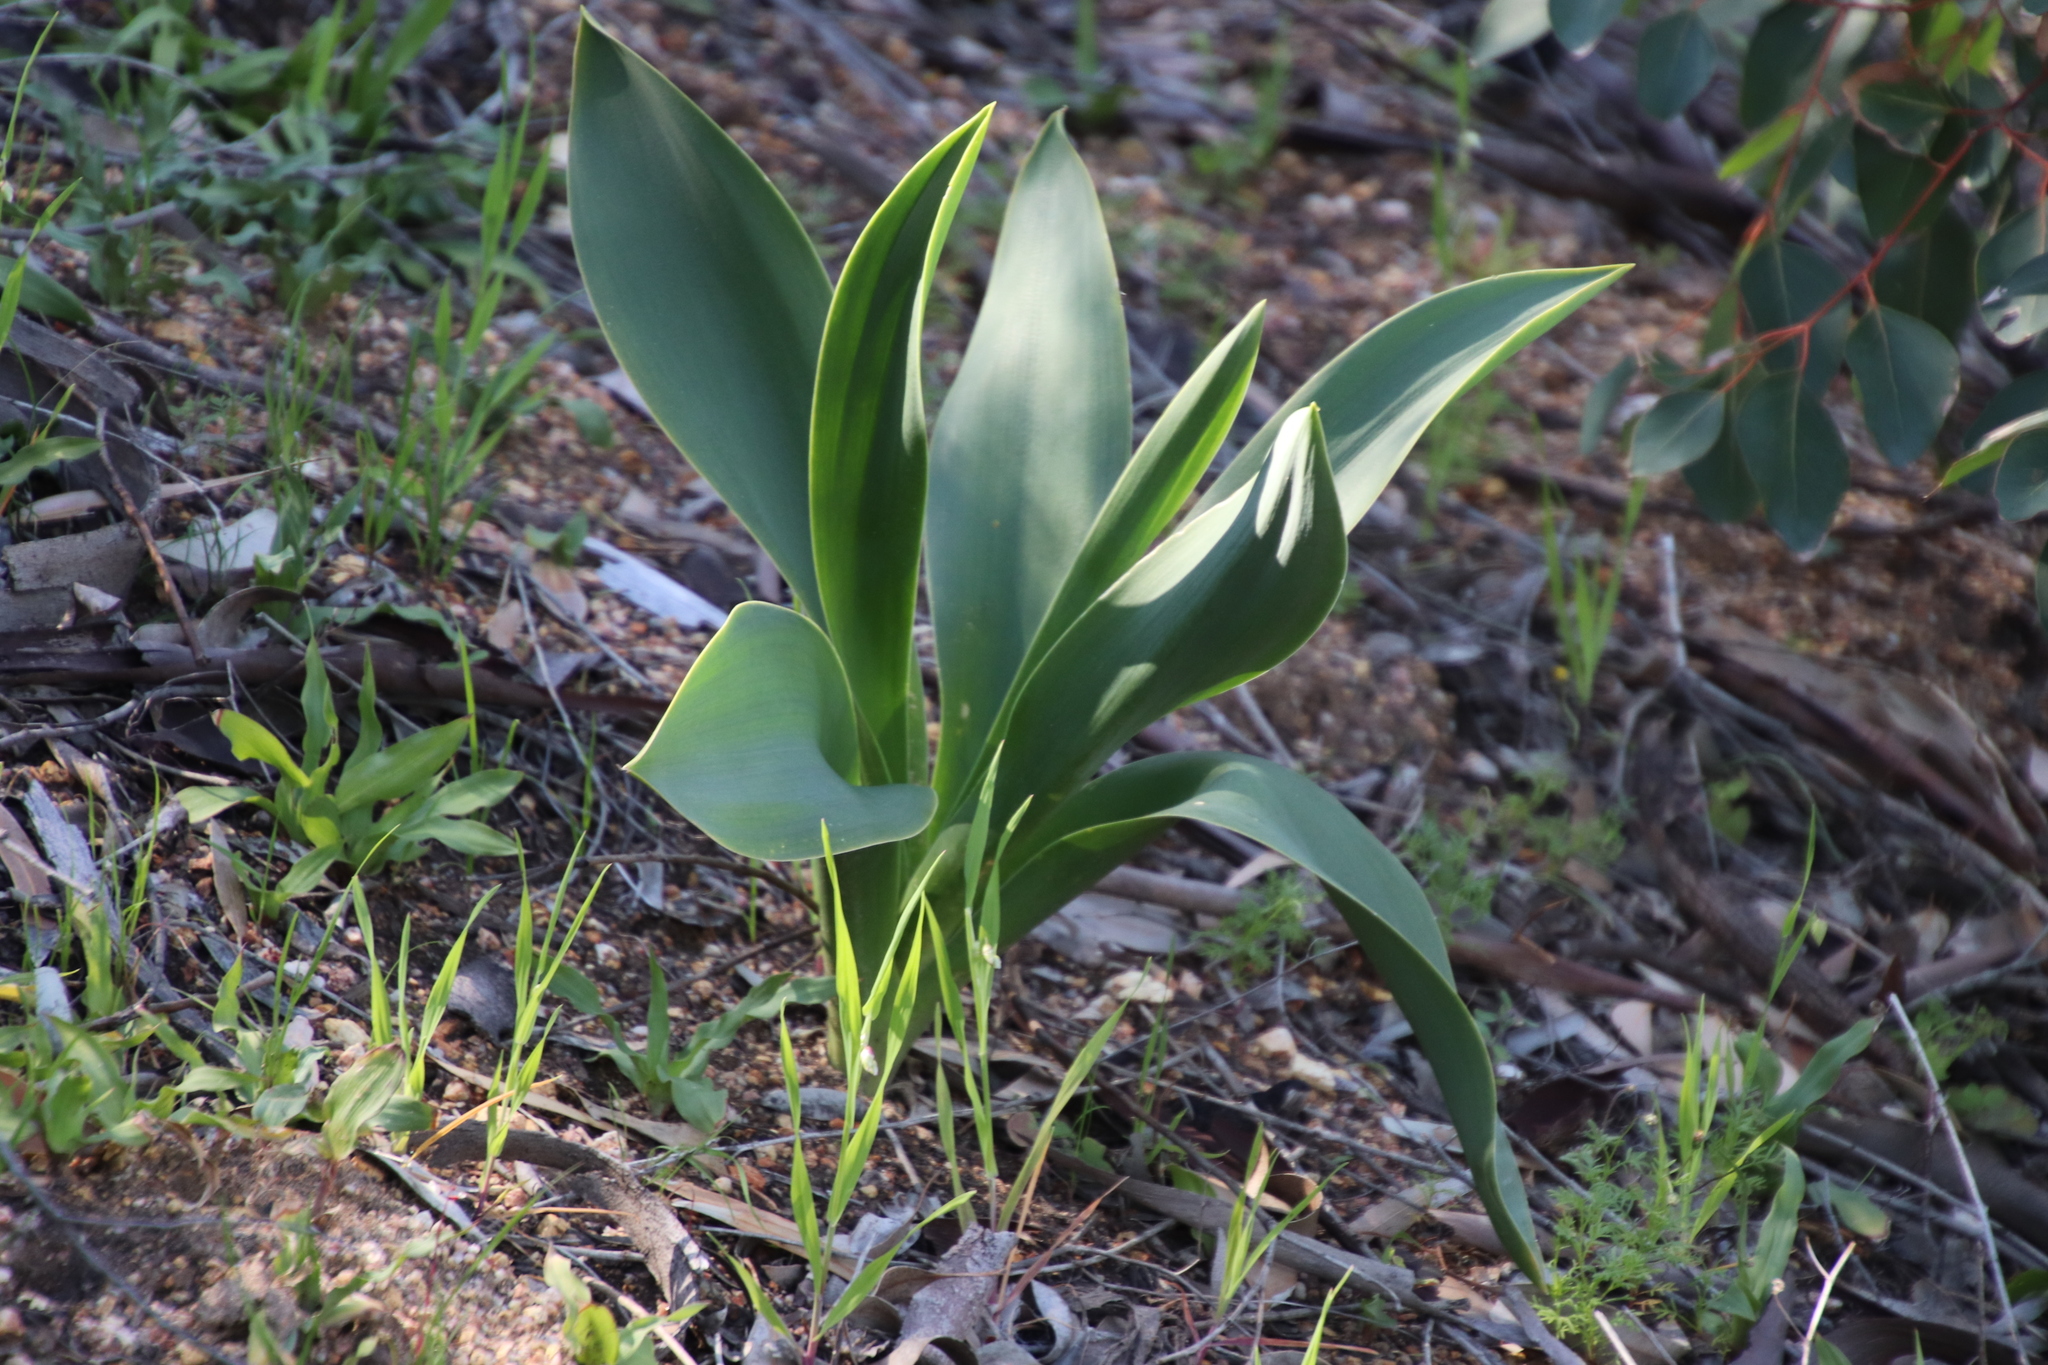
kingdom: Plantae
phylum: Tracheophyta
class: Liliopsida
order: Asparagales
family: Asparagaceae
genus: Drimia
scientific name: Drimia capensis
